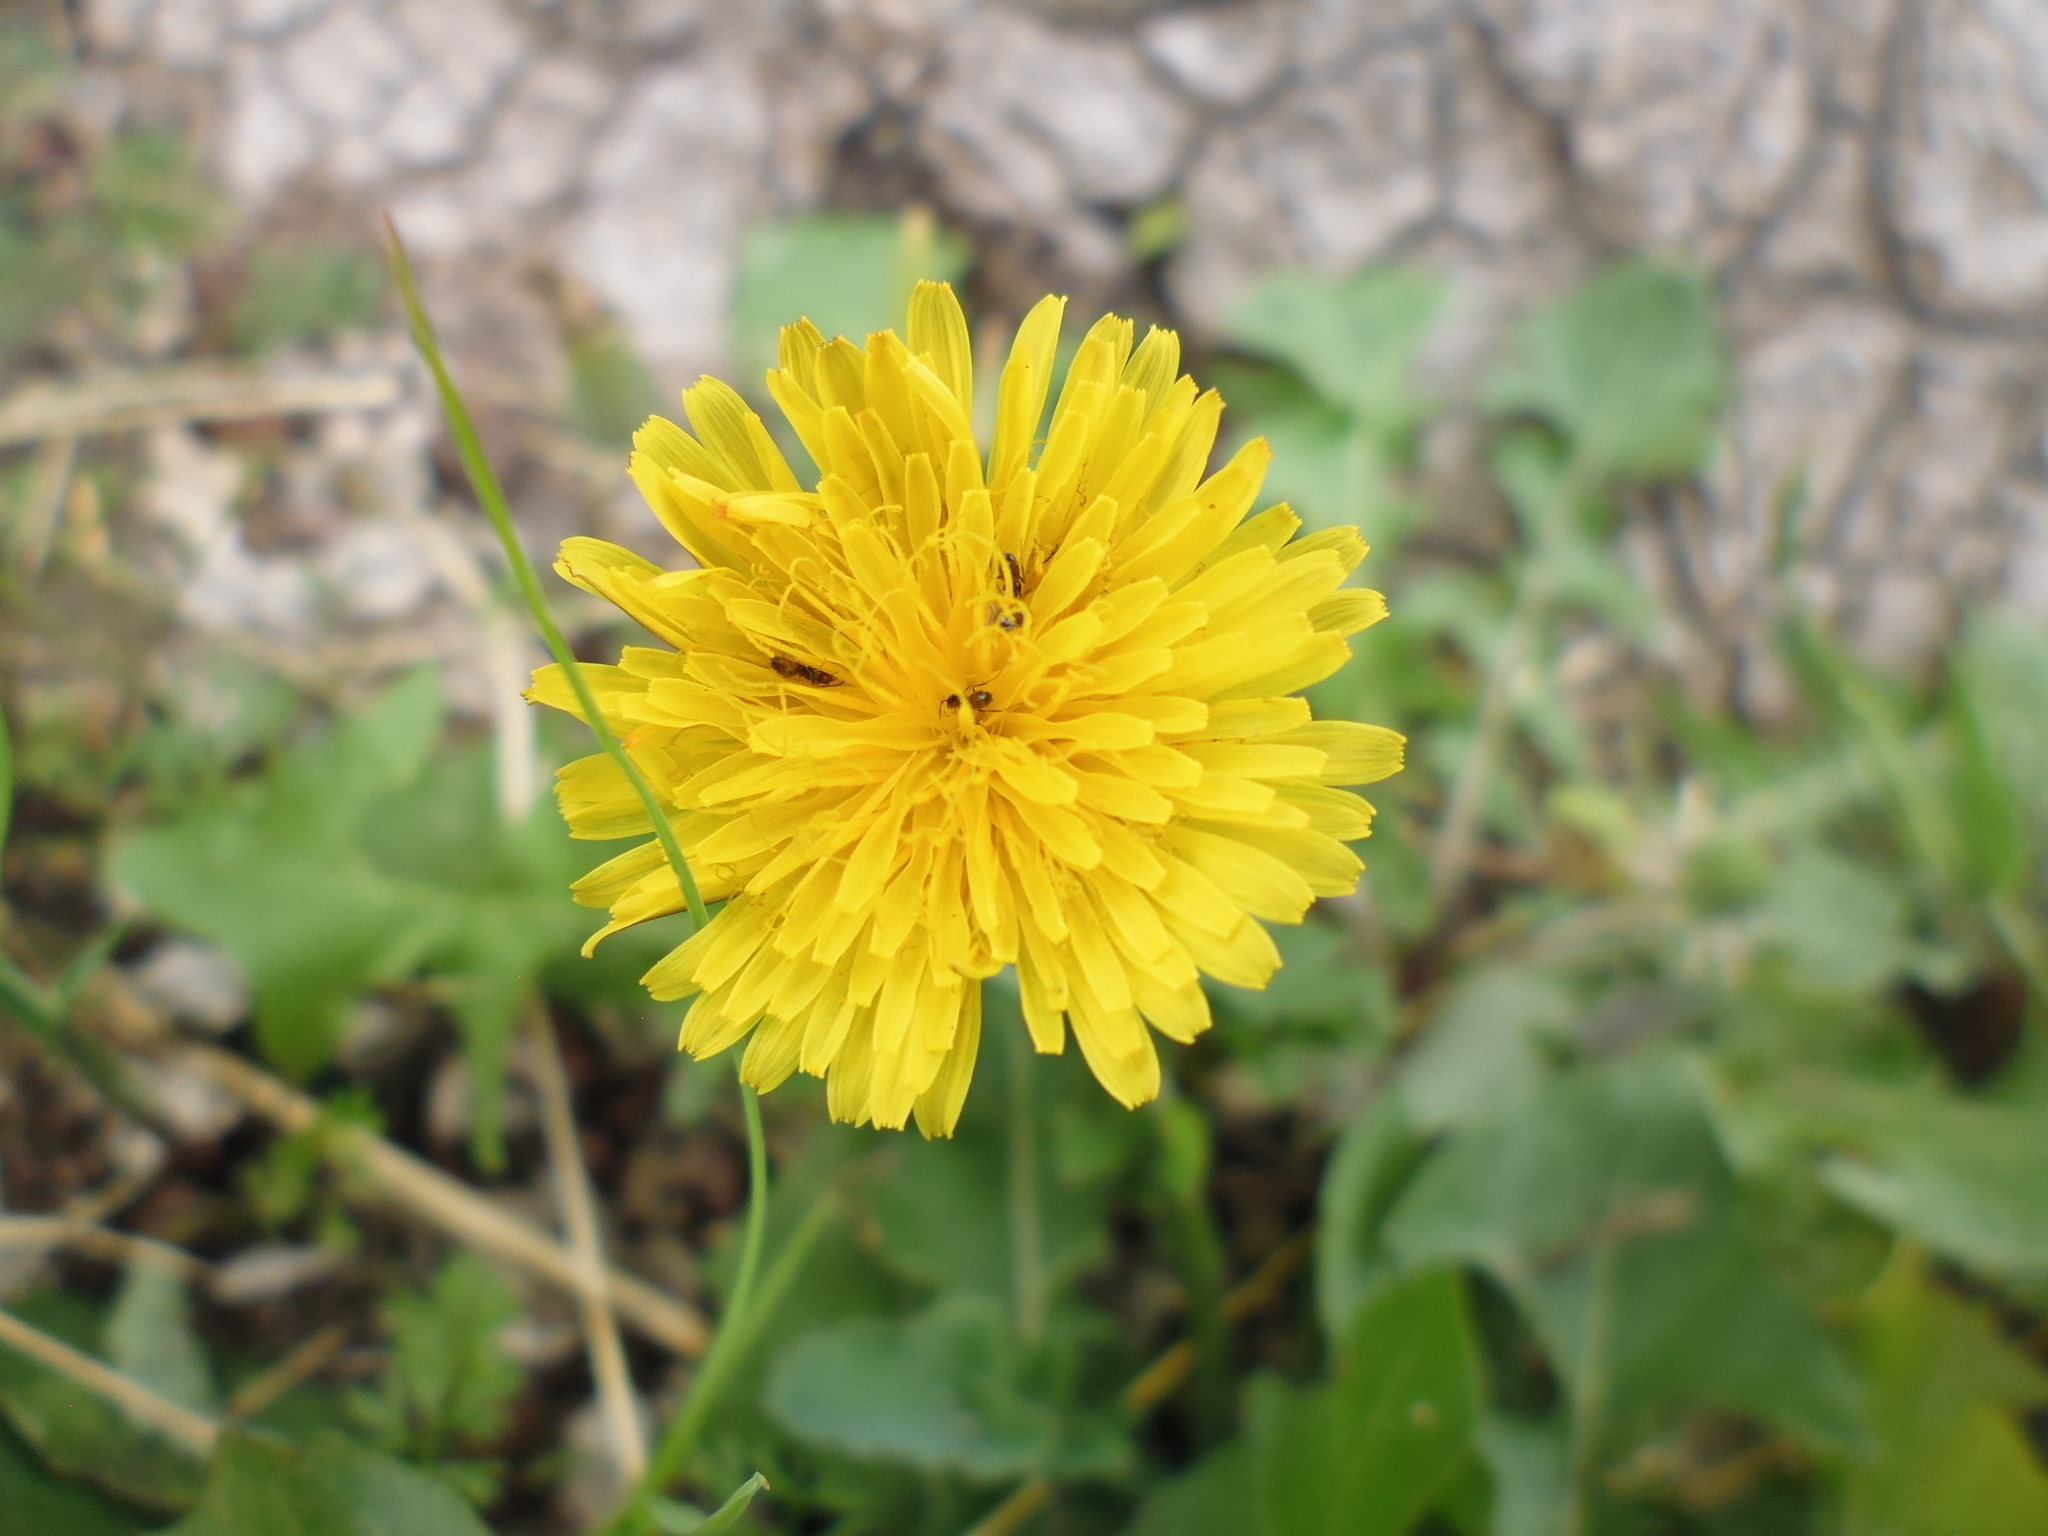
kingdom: Plantae
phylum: Tracheophyta
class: Magnoliopsida
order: Asterales
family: Asteraceae
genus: Taraxacum
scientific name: Taraxacum officinale
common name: Common dandelion
